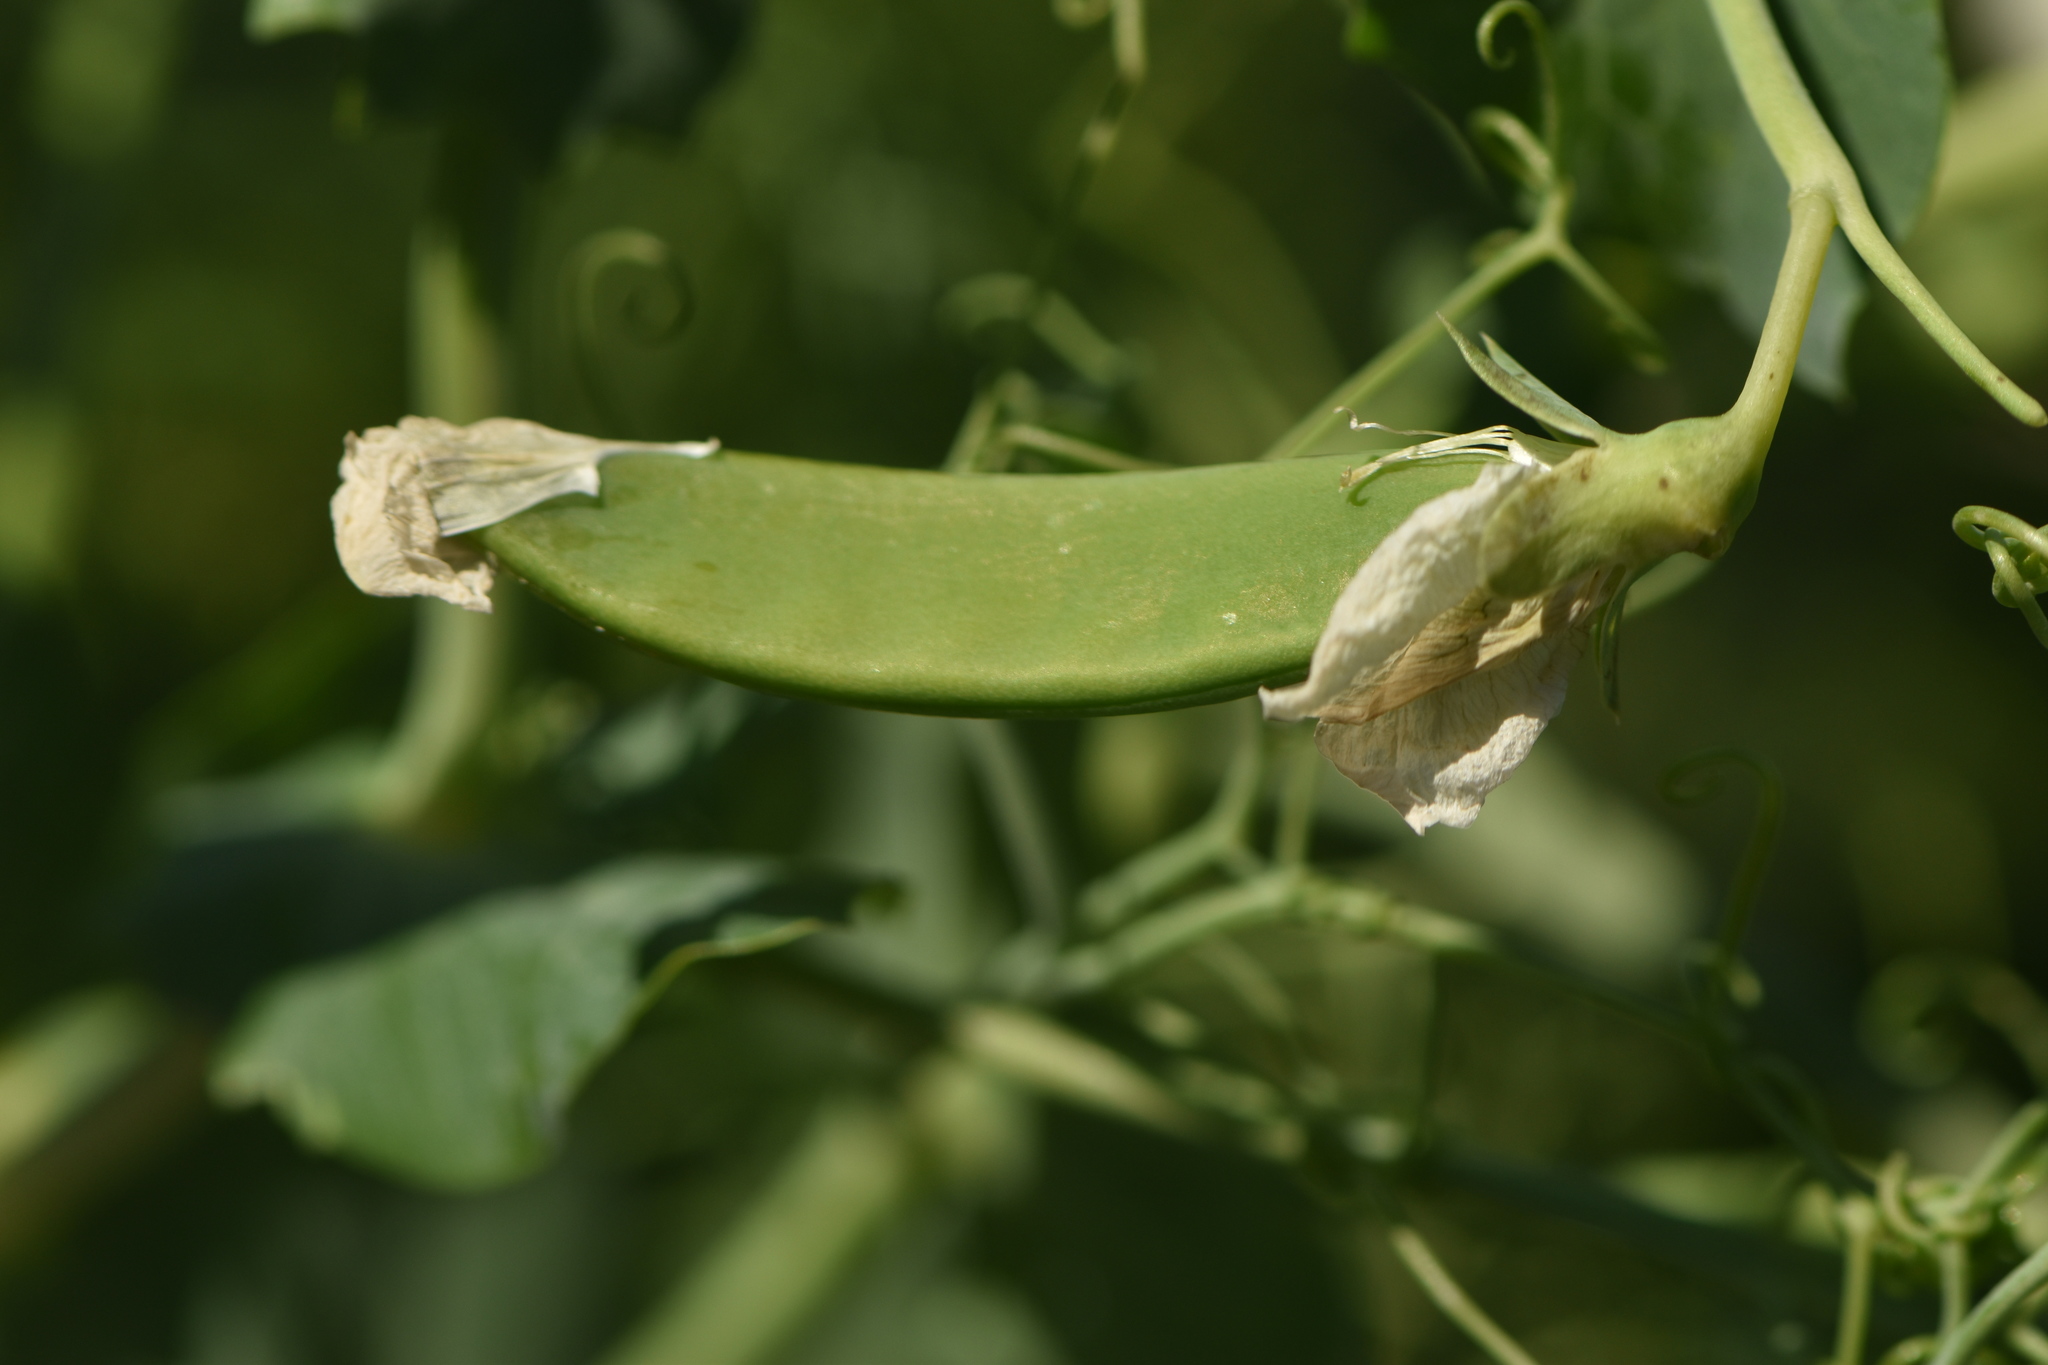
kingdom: Plantae
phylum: Tracheophyta
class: Magnoliopsida
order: Fabales
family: Fabaceae
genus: Lathyrus
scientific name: Lathyrus oleraceus
